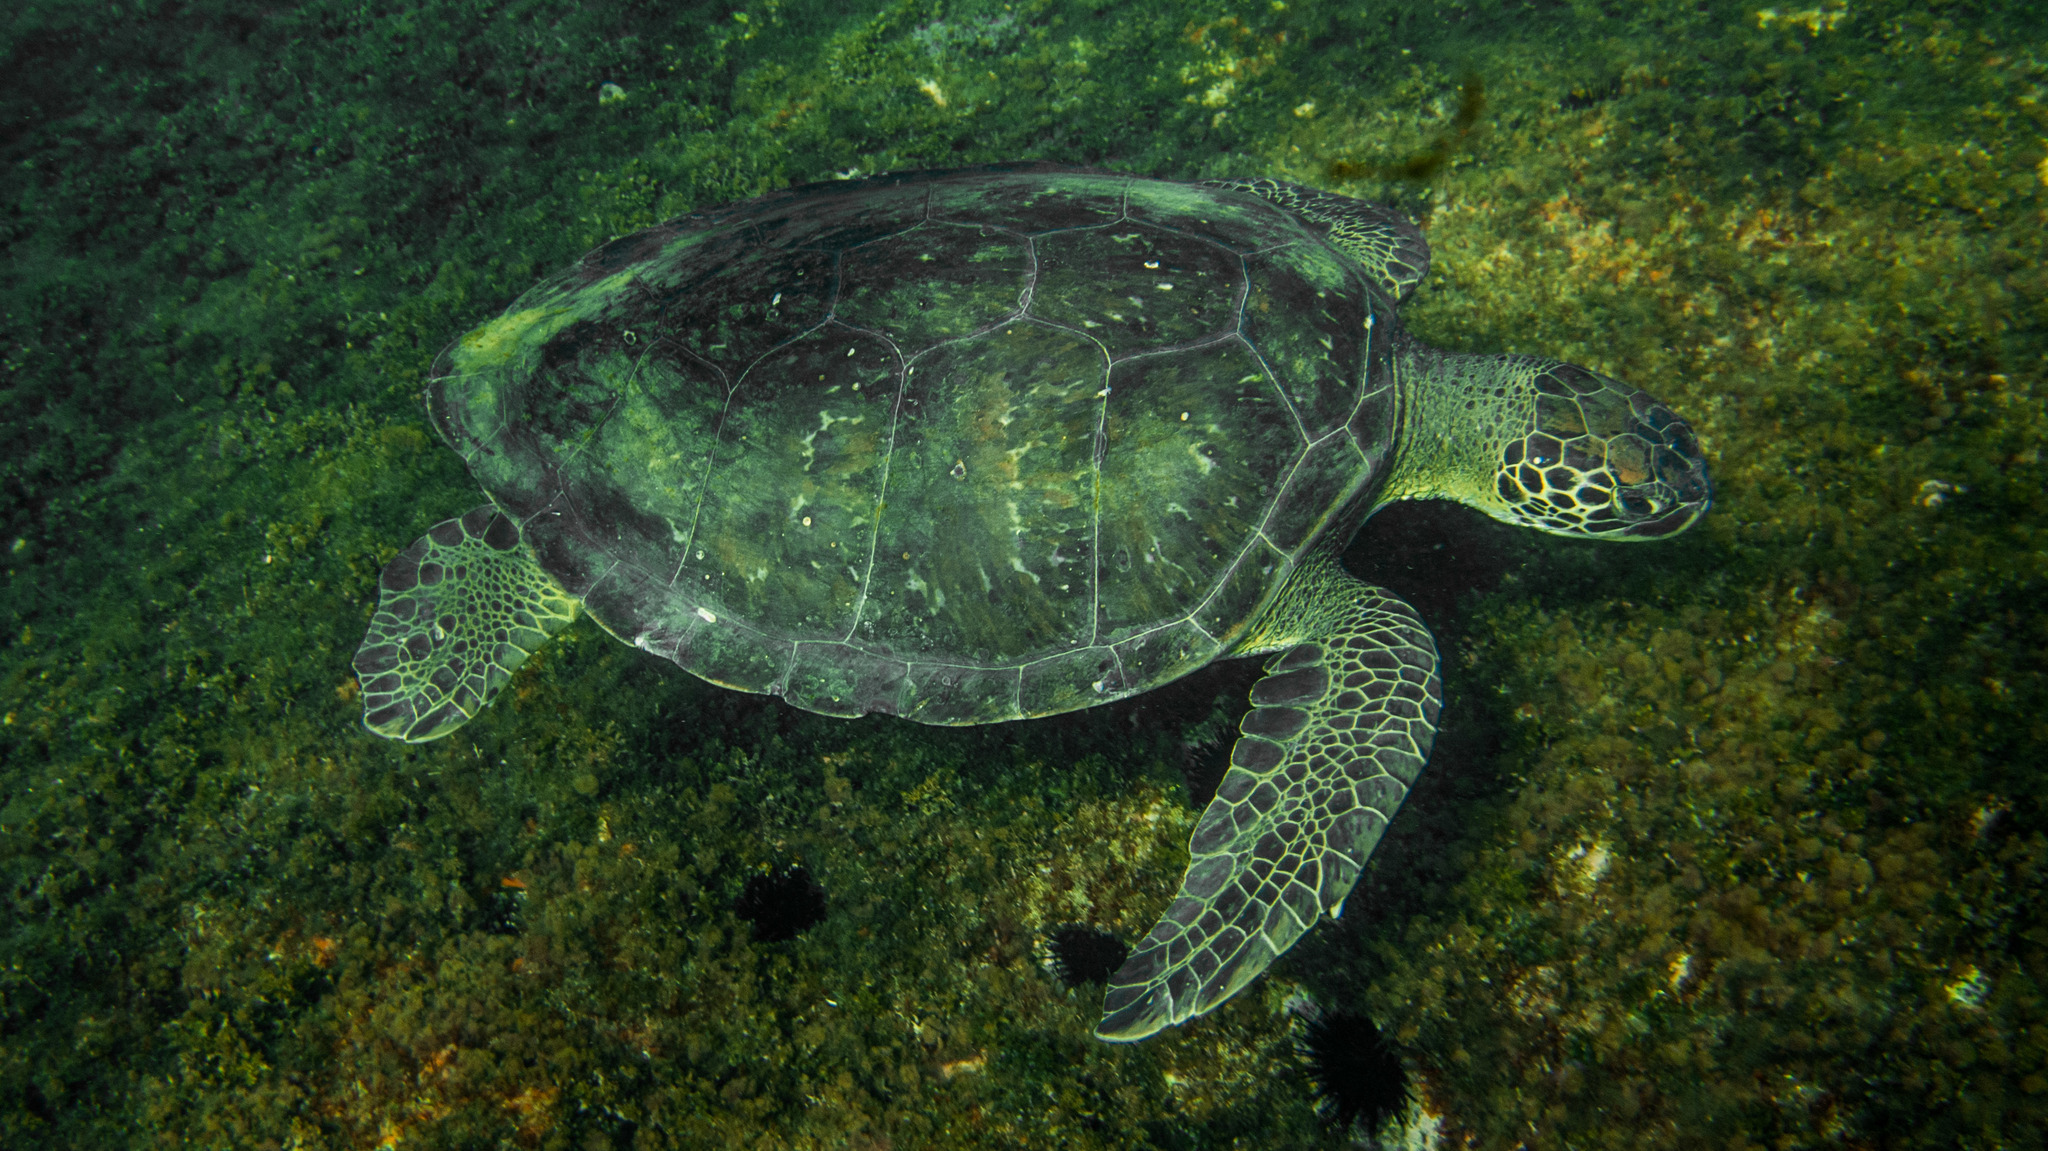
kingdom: Animalia
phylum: Chordata
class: Testudines
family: Cheloniidae
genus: Chelonia
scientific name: Chelonia mydas
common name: Green turtle
